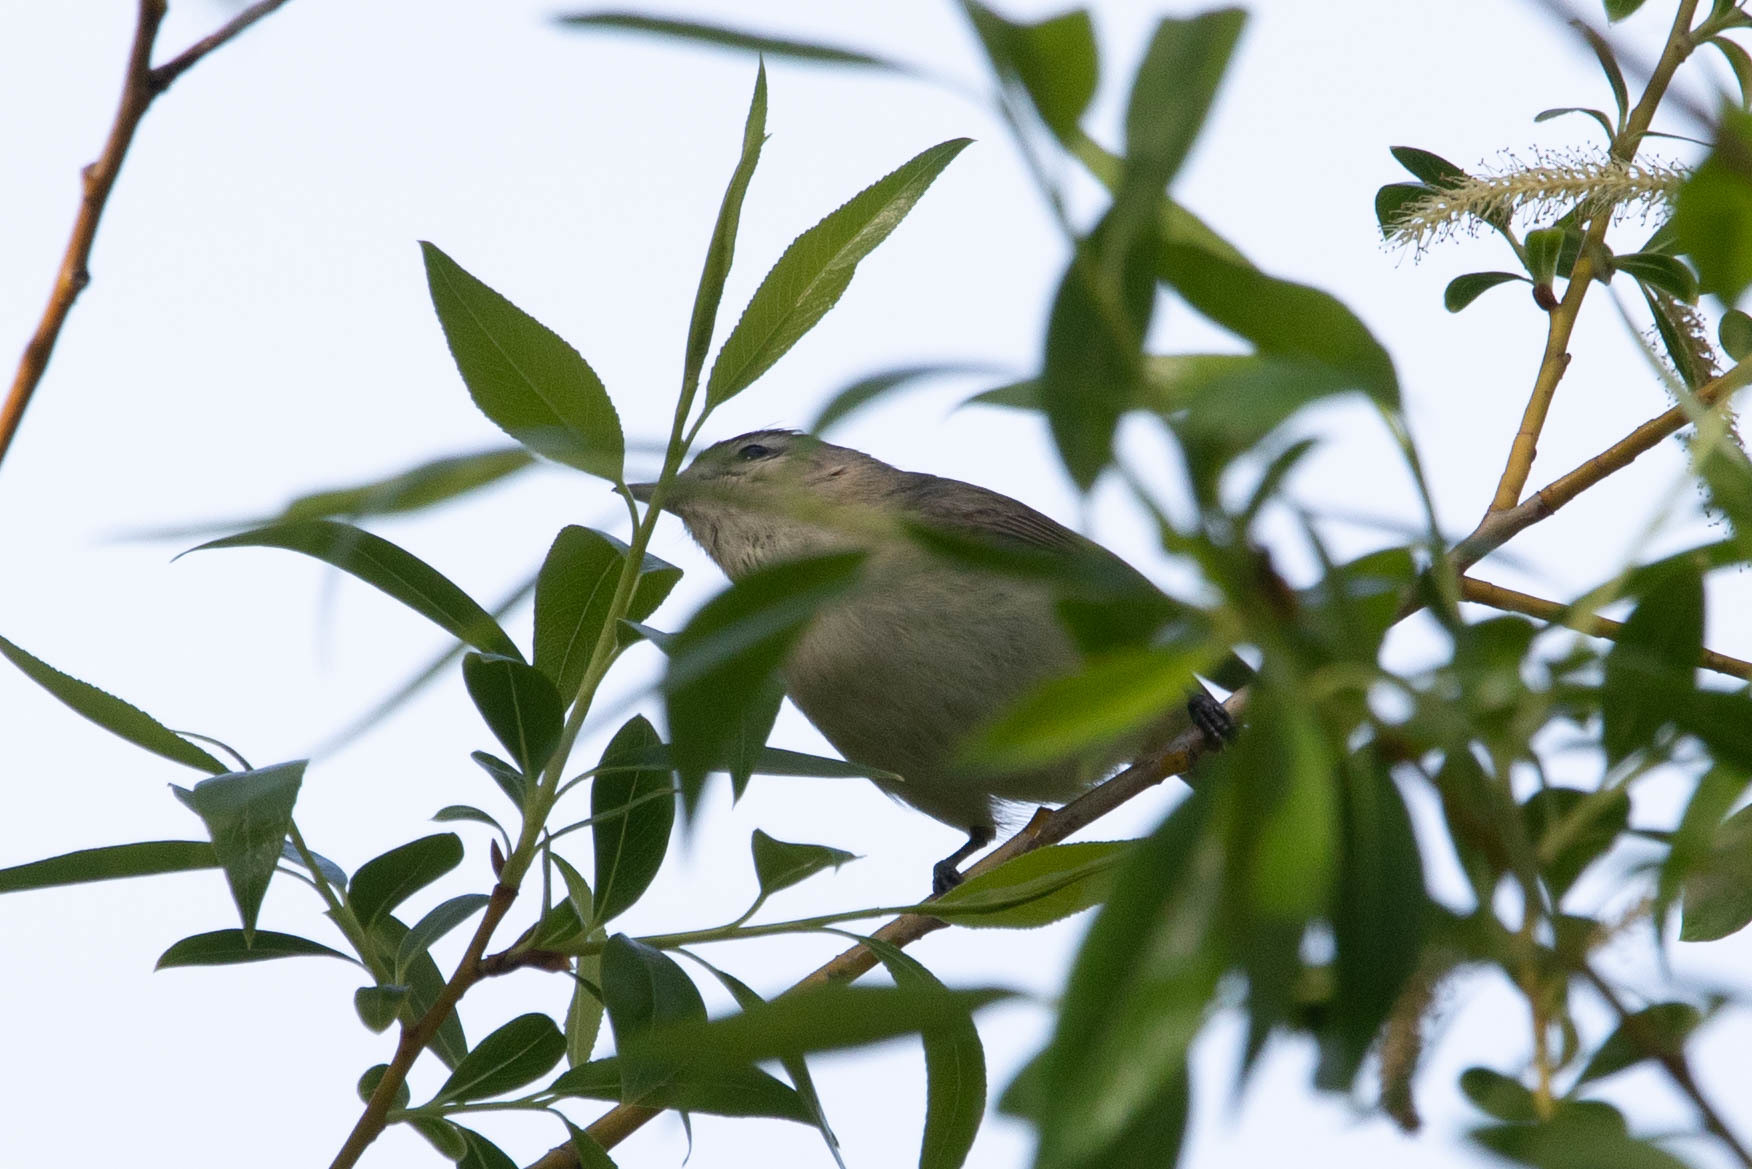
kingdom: Animalia
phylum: Chordata
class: Aves
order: Passeriformes
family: Vireonidae
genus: Vireo
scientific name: Vireo gilvus
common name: Warbling vireo
